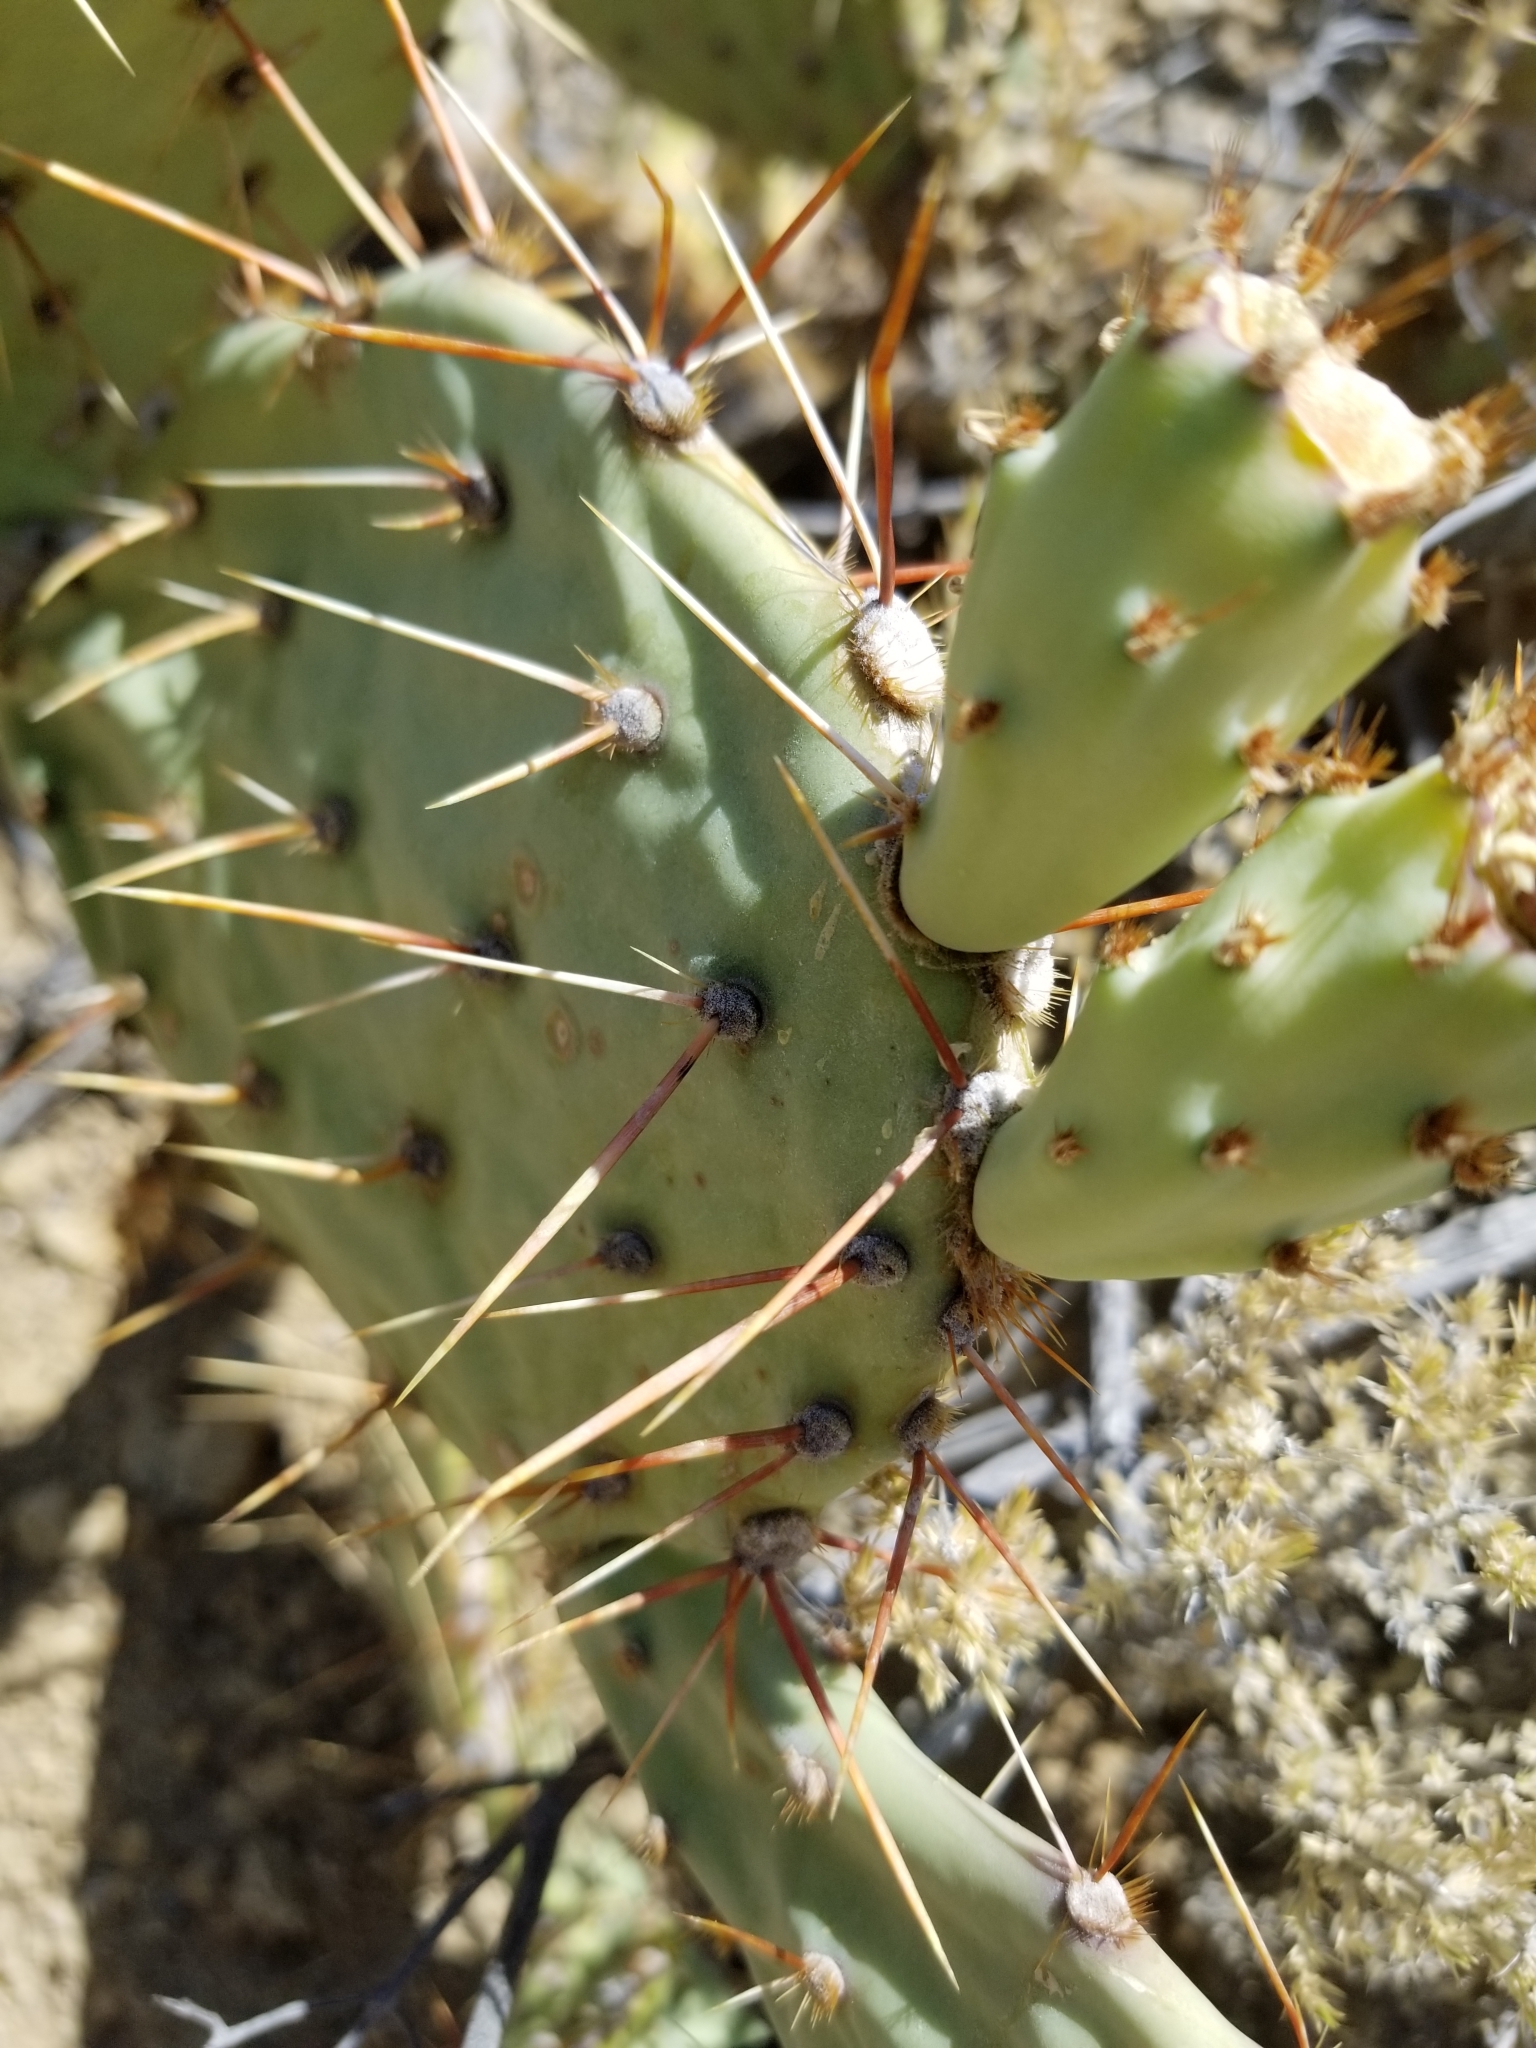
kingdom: Plantae
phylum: Tracheophyta
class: Magnoliopsida
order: Caryophyllales
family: Cactaceae
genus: Opuntia
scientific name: Opuntia phaeacantha
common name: New mexico prickly-pear
